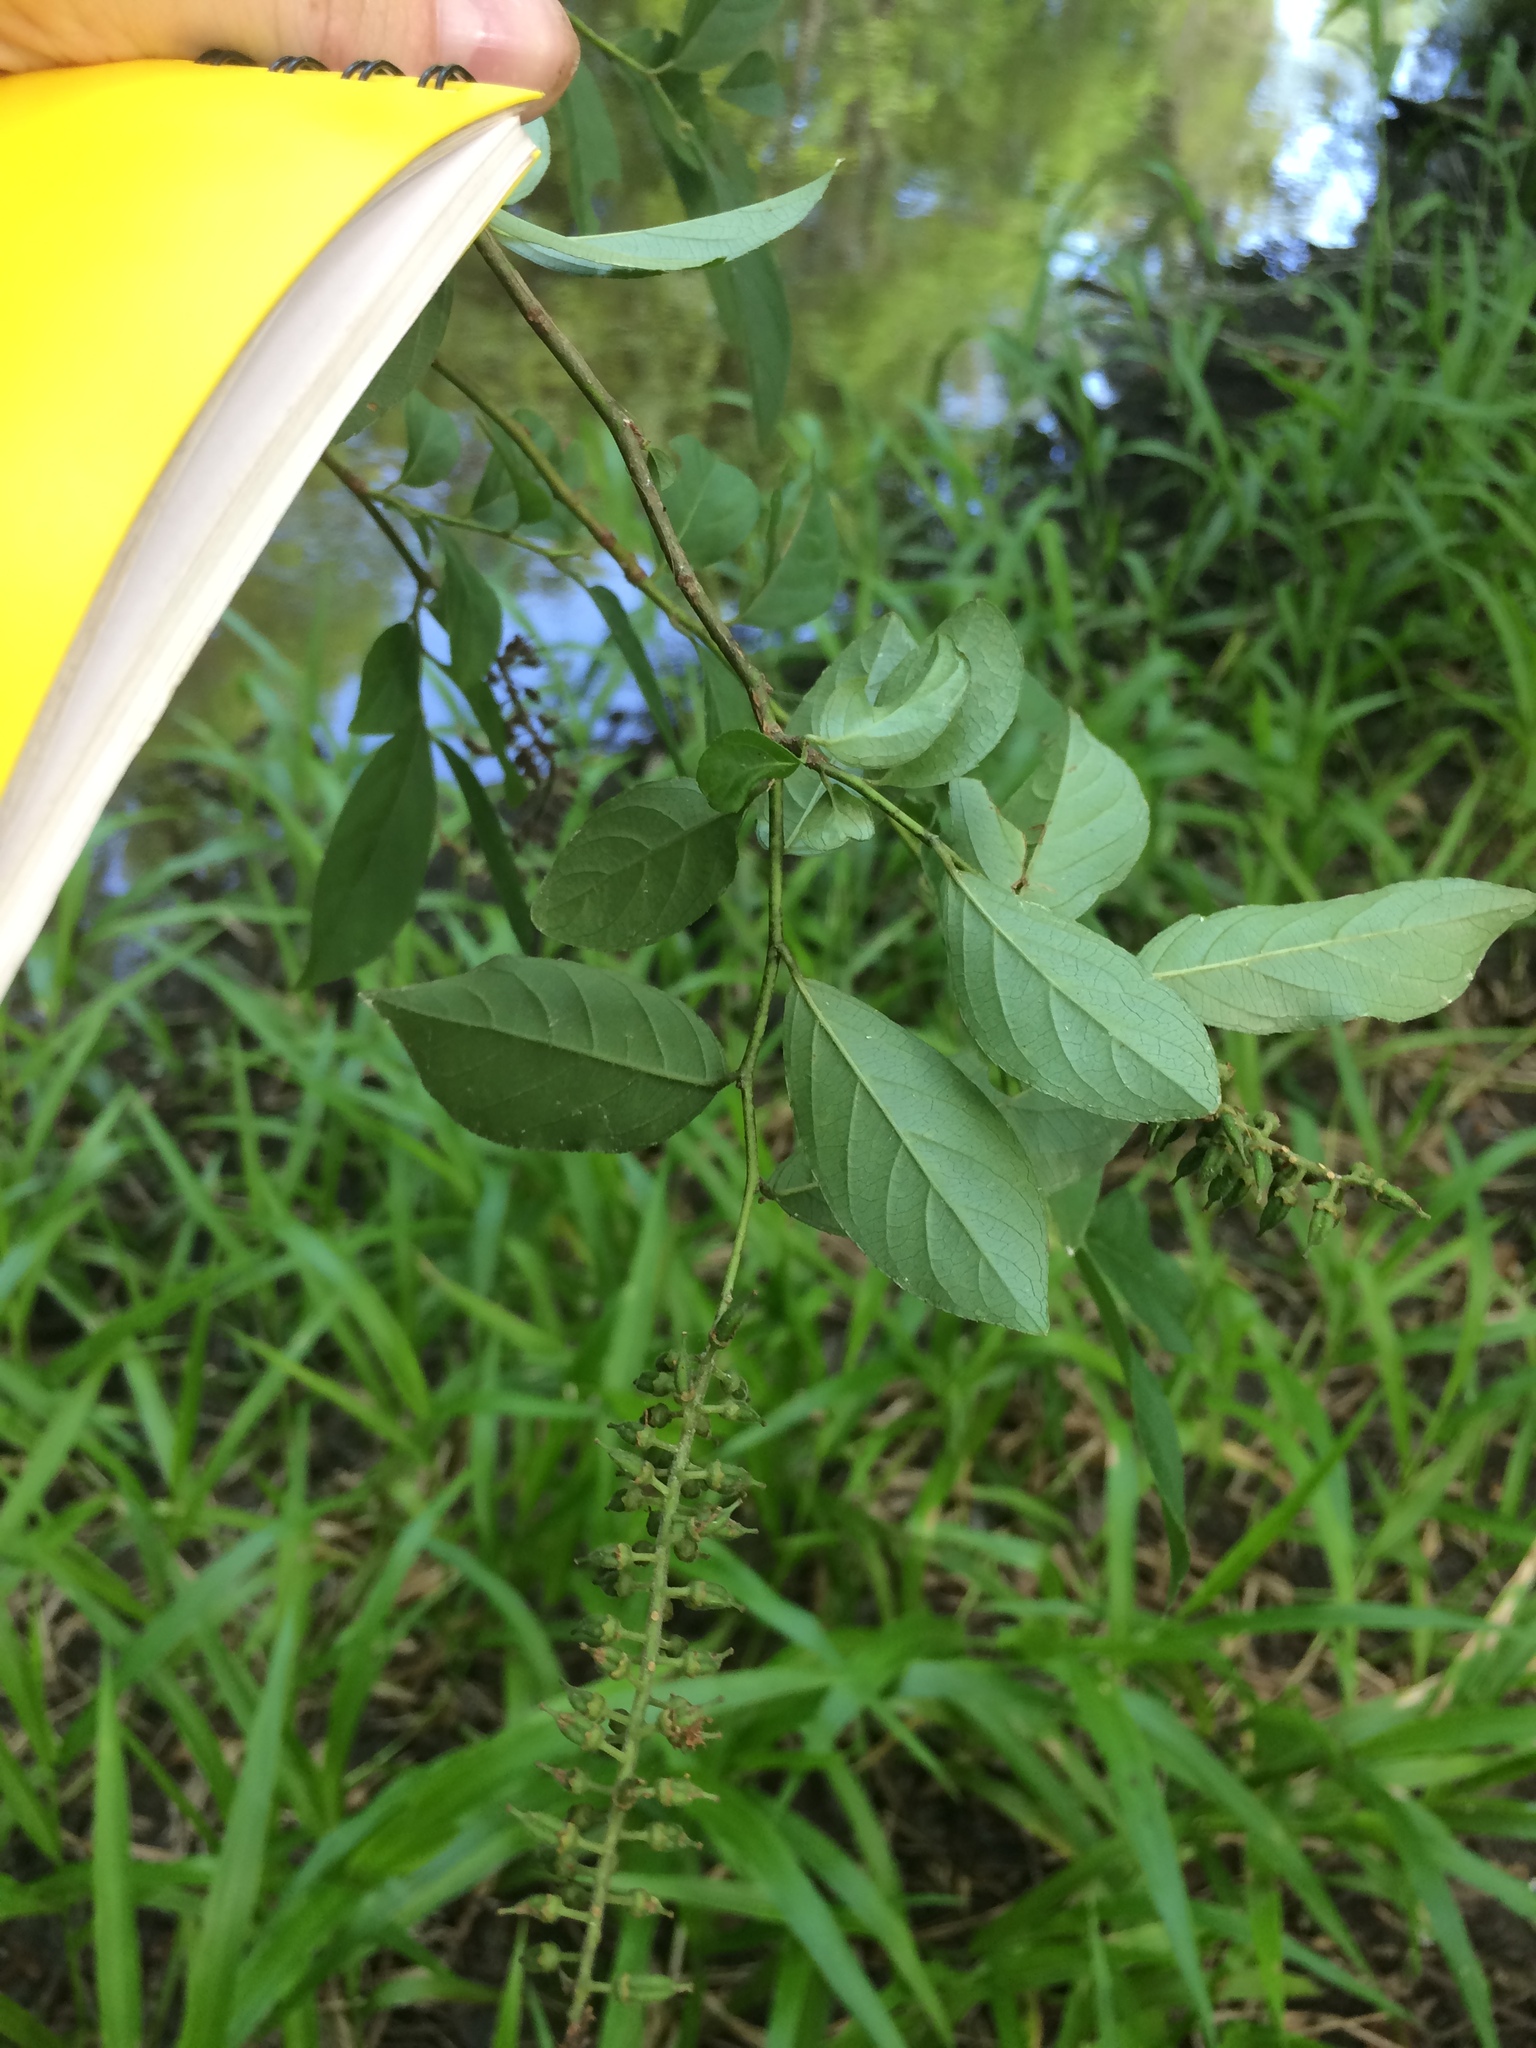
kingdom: Plantae
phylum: Tracheophyta
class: Magnoliopsida
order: Saxifragales
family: Iteaceae
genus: Itea
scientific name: Itea virginica
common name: Sweetspire
